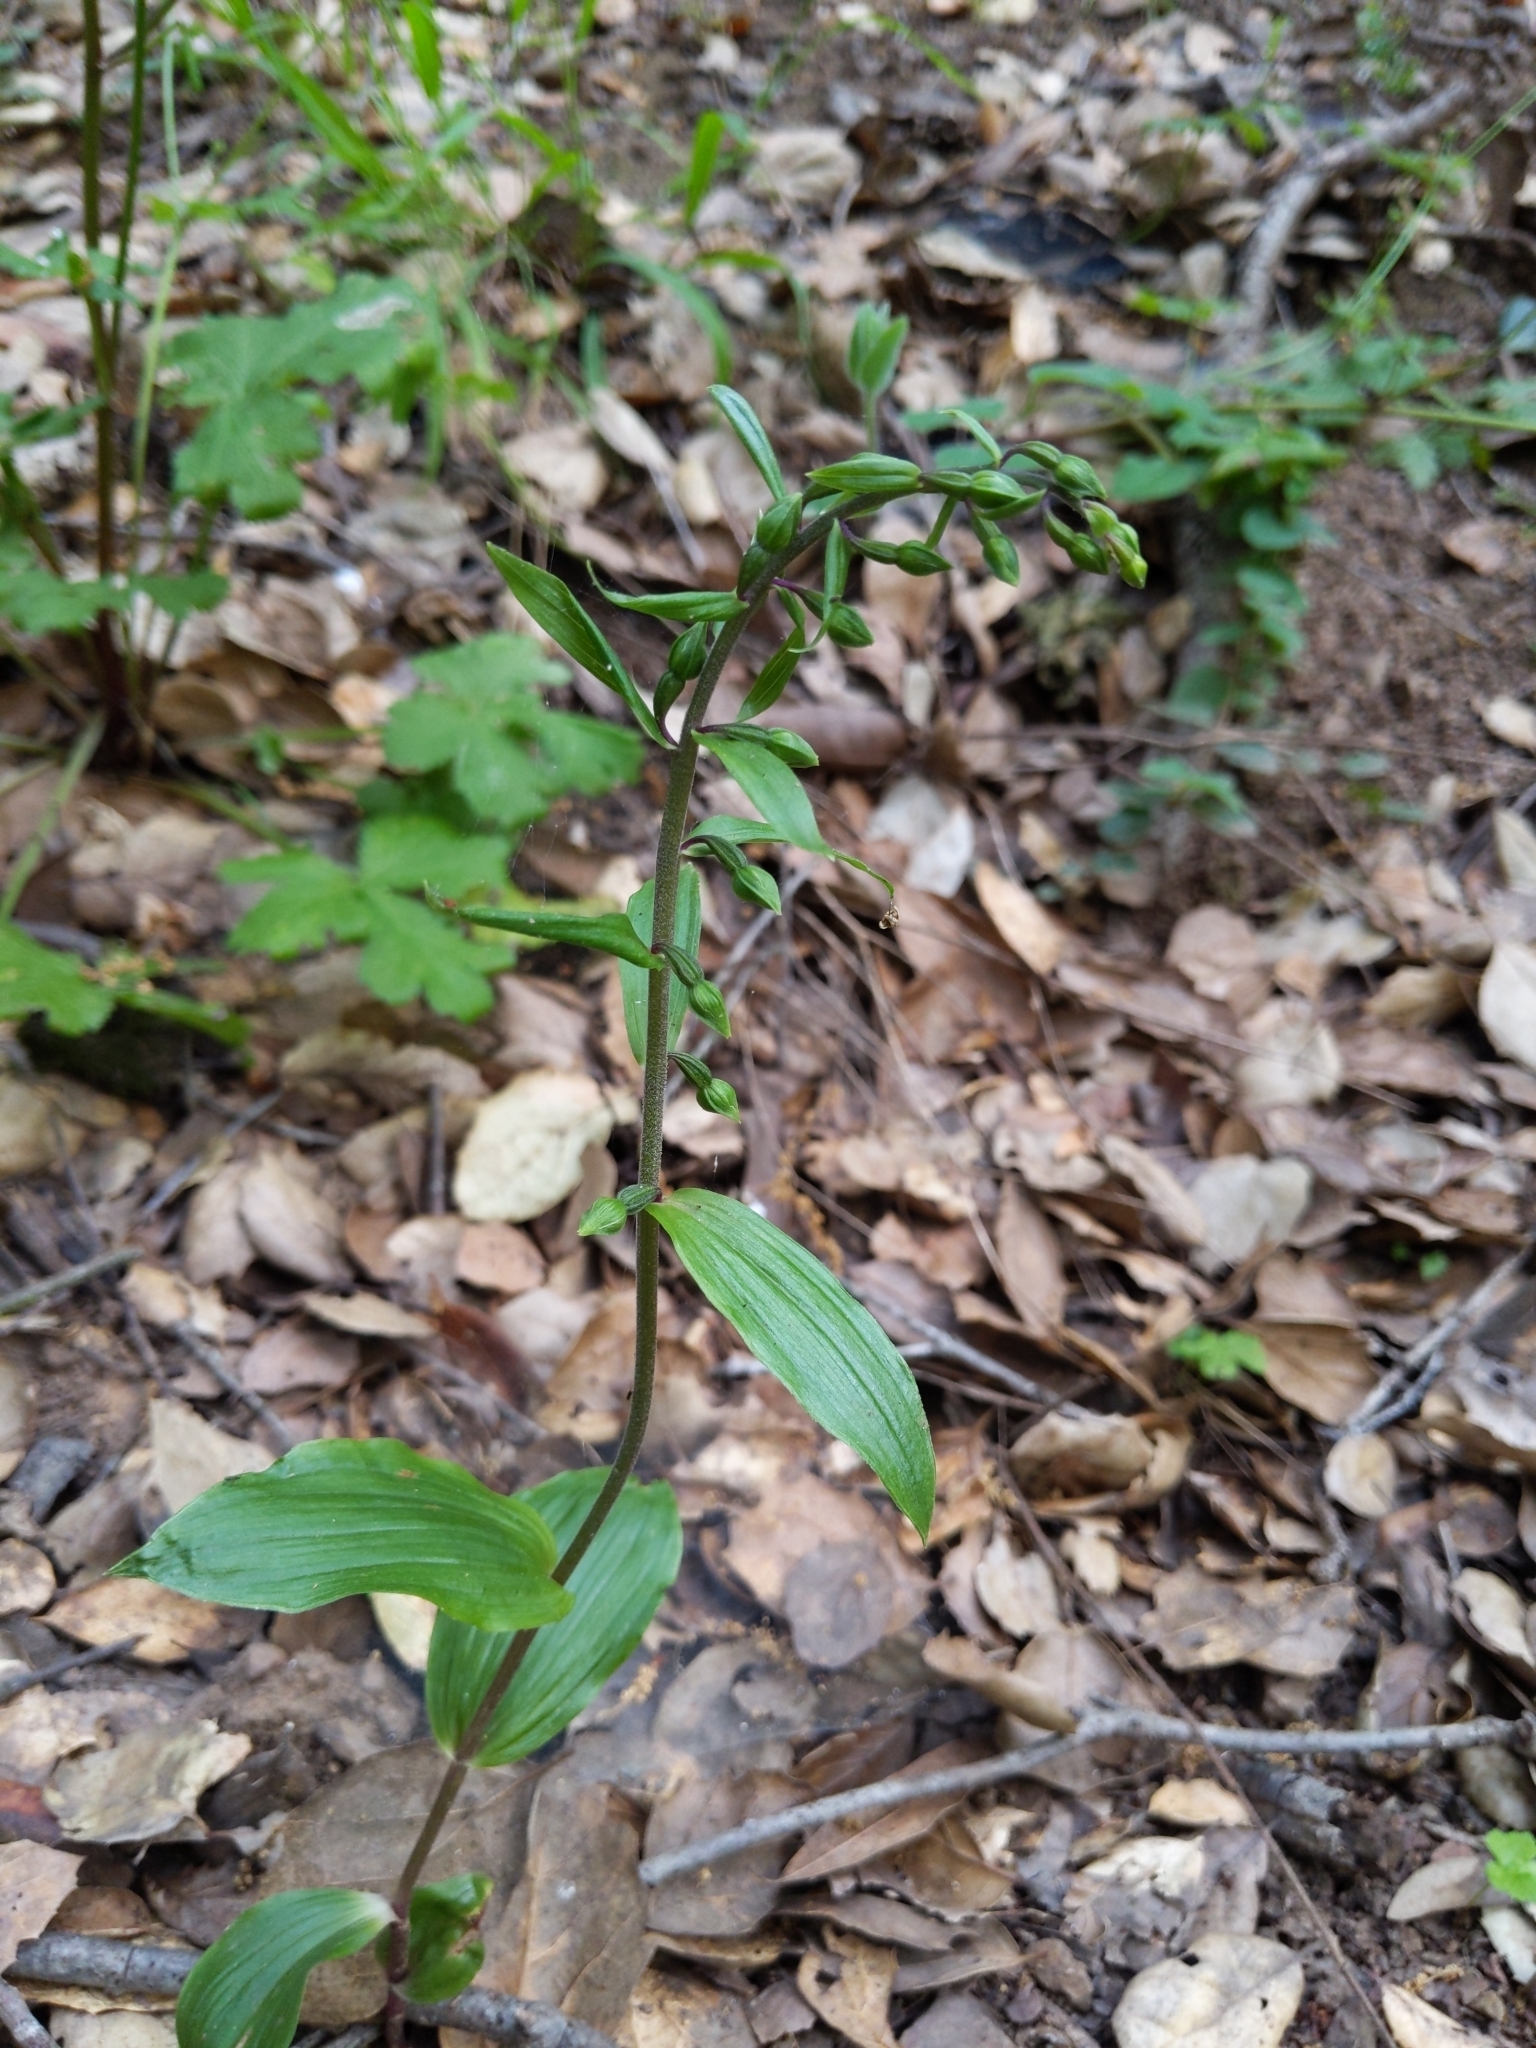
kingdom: Plantae
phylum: Tracheophyta
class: Liliopsida
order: Asparagales
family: Orchidaceae
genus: Epipactis
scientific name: Epipactis helleborine
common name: Broad-leaved helleborine
